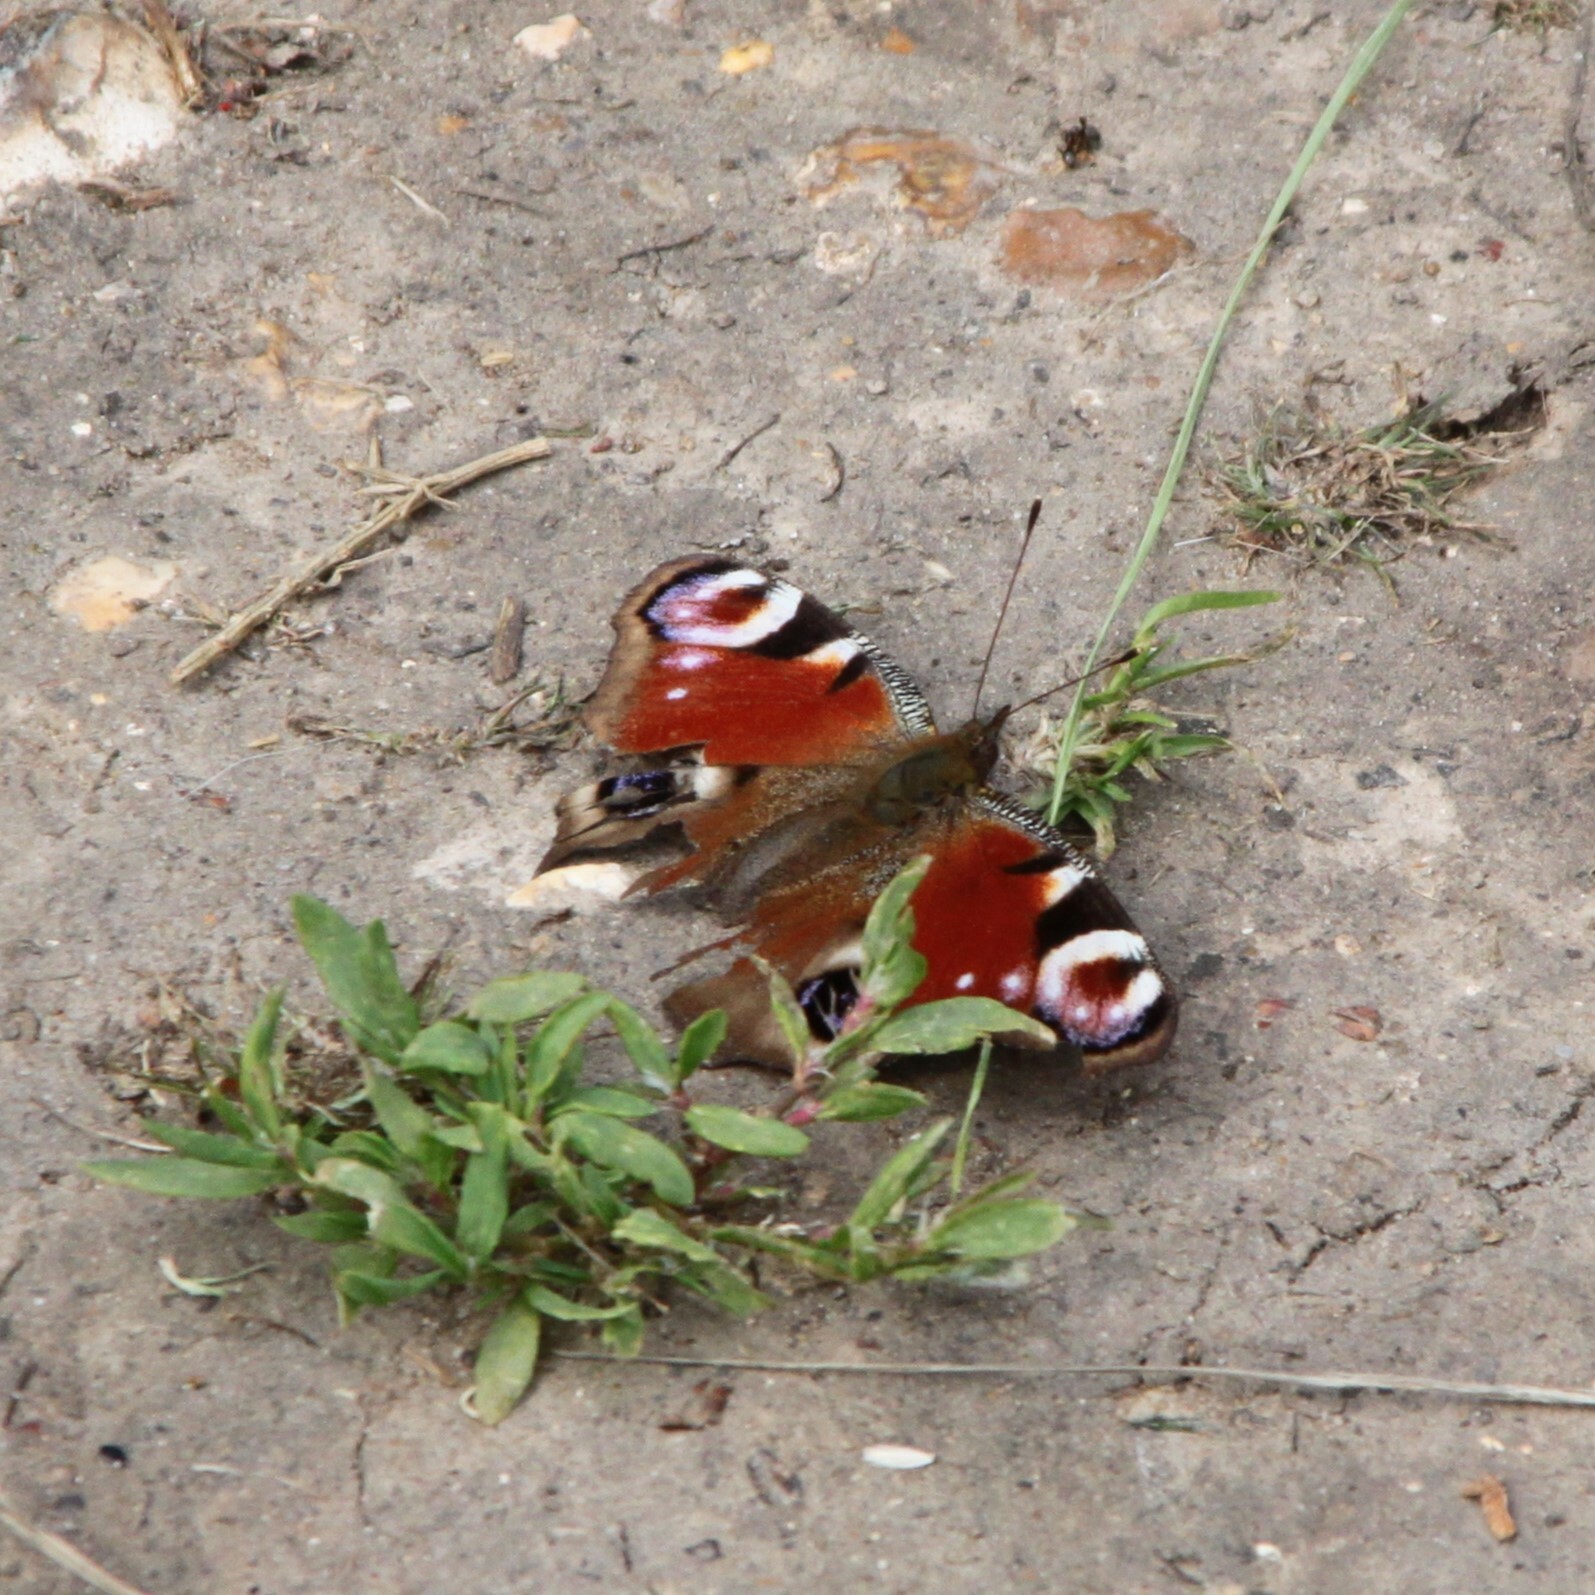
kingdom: Animalia
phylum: Arthropoda
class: Insecta
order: Lepidoptera
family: Nymphalidae
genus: Aglais
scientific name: Aglais io
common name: Peacock
